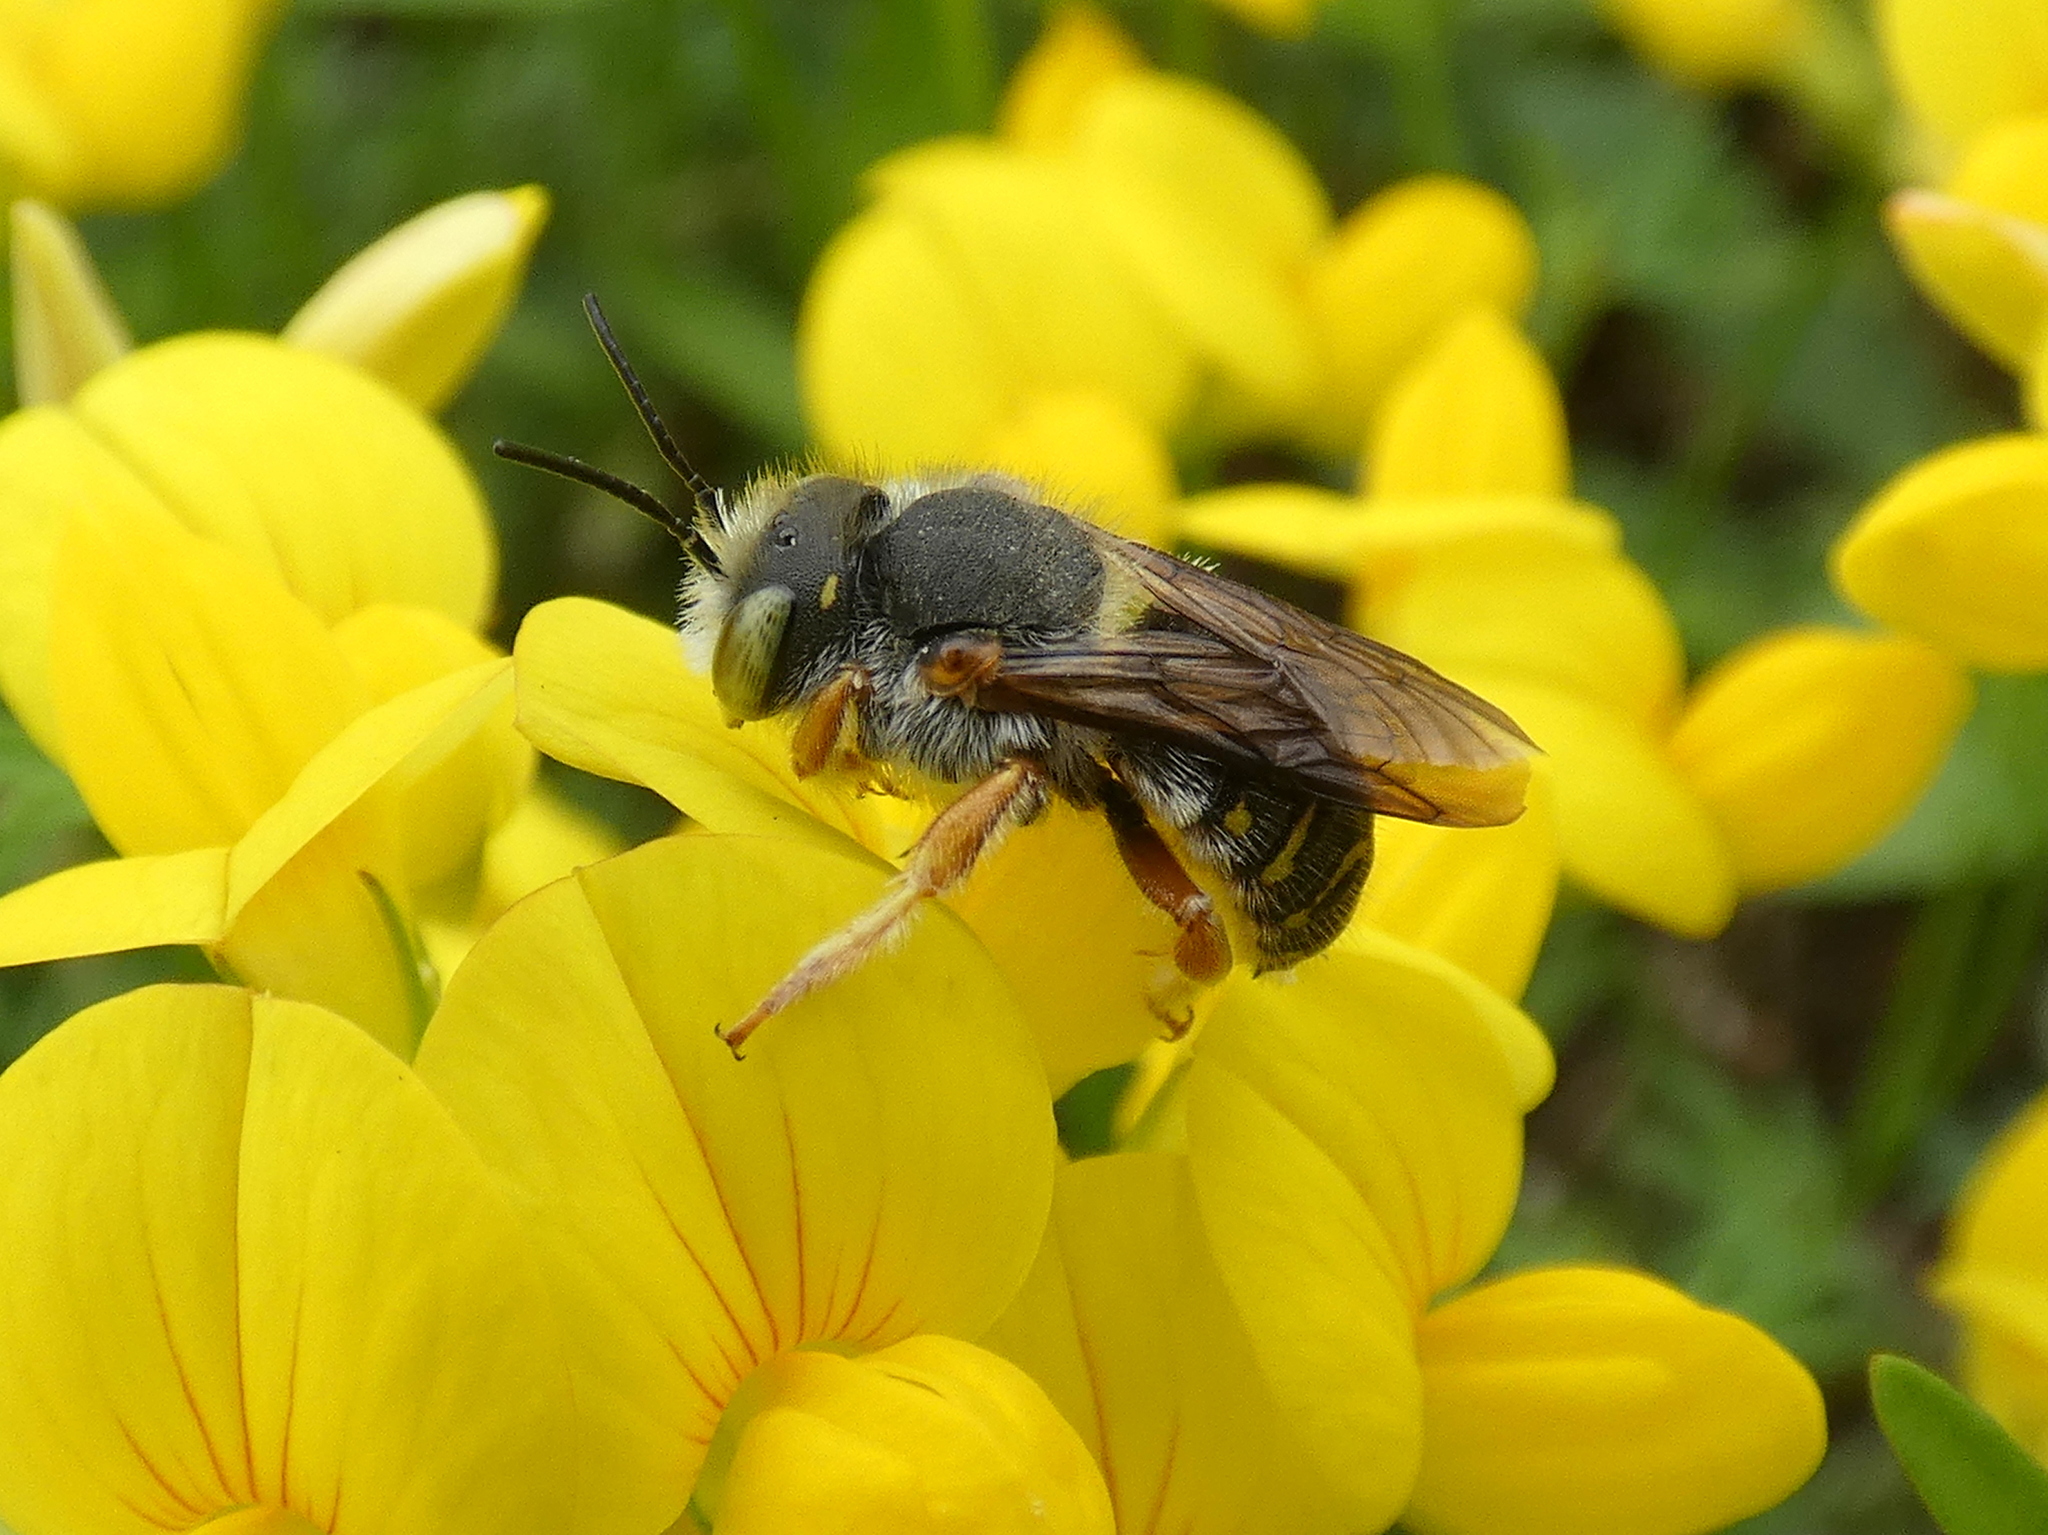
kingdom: Animalia
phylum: Arthropoda
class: Insecta
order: Hymenoptera
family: Megachilidae
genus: Anthidium
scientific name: Anthidium oblongatum
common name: Oblong wool carder bee
